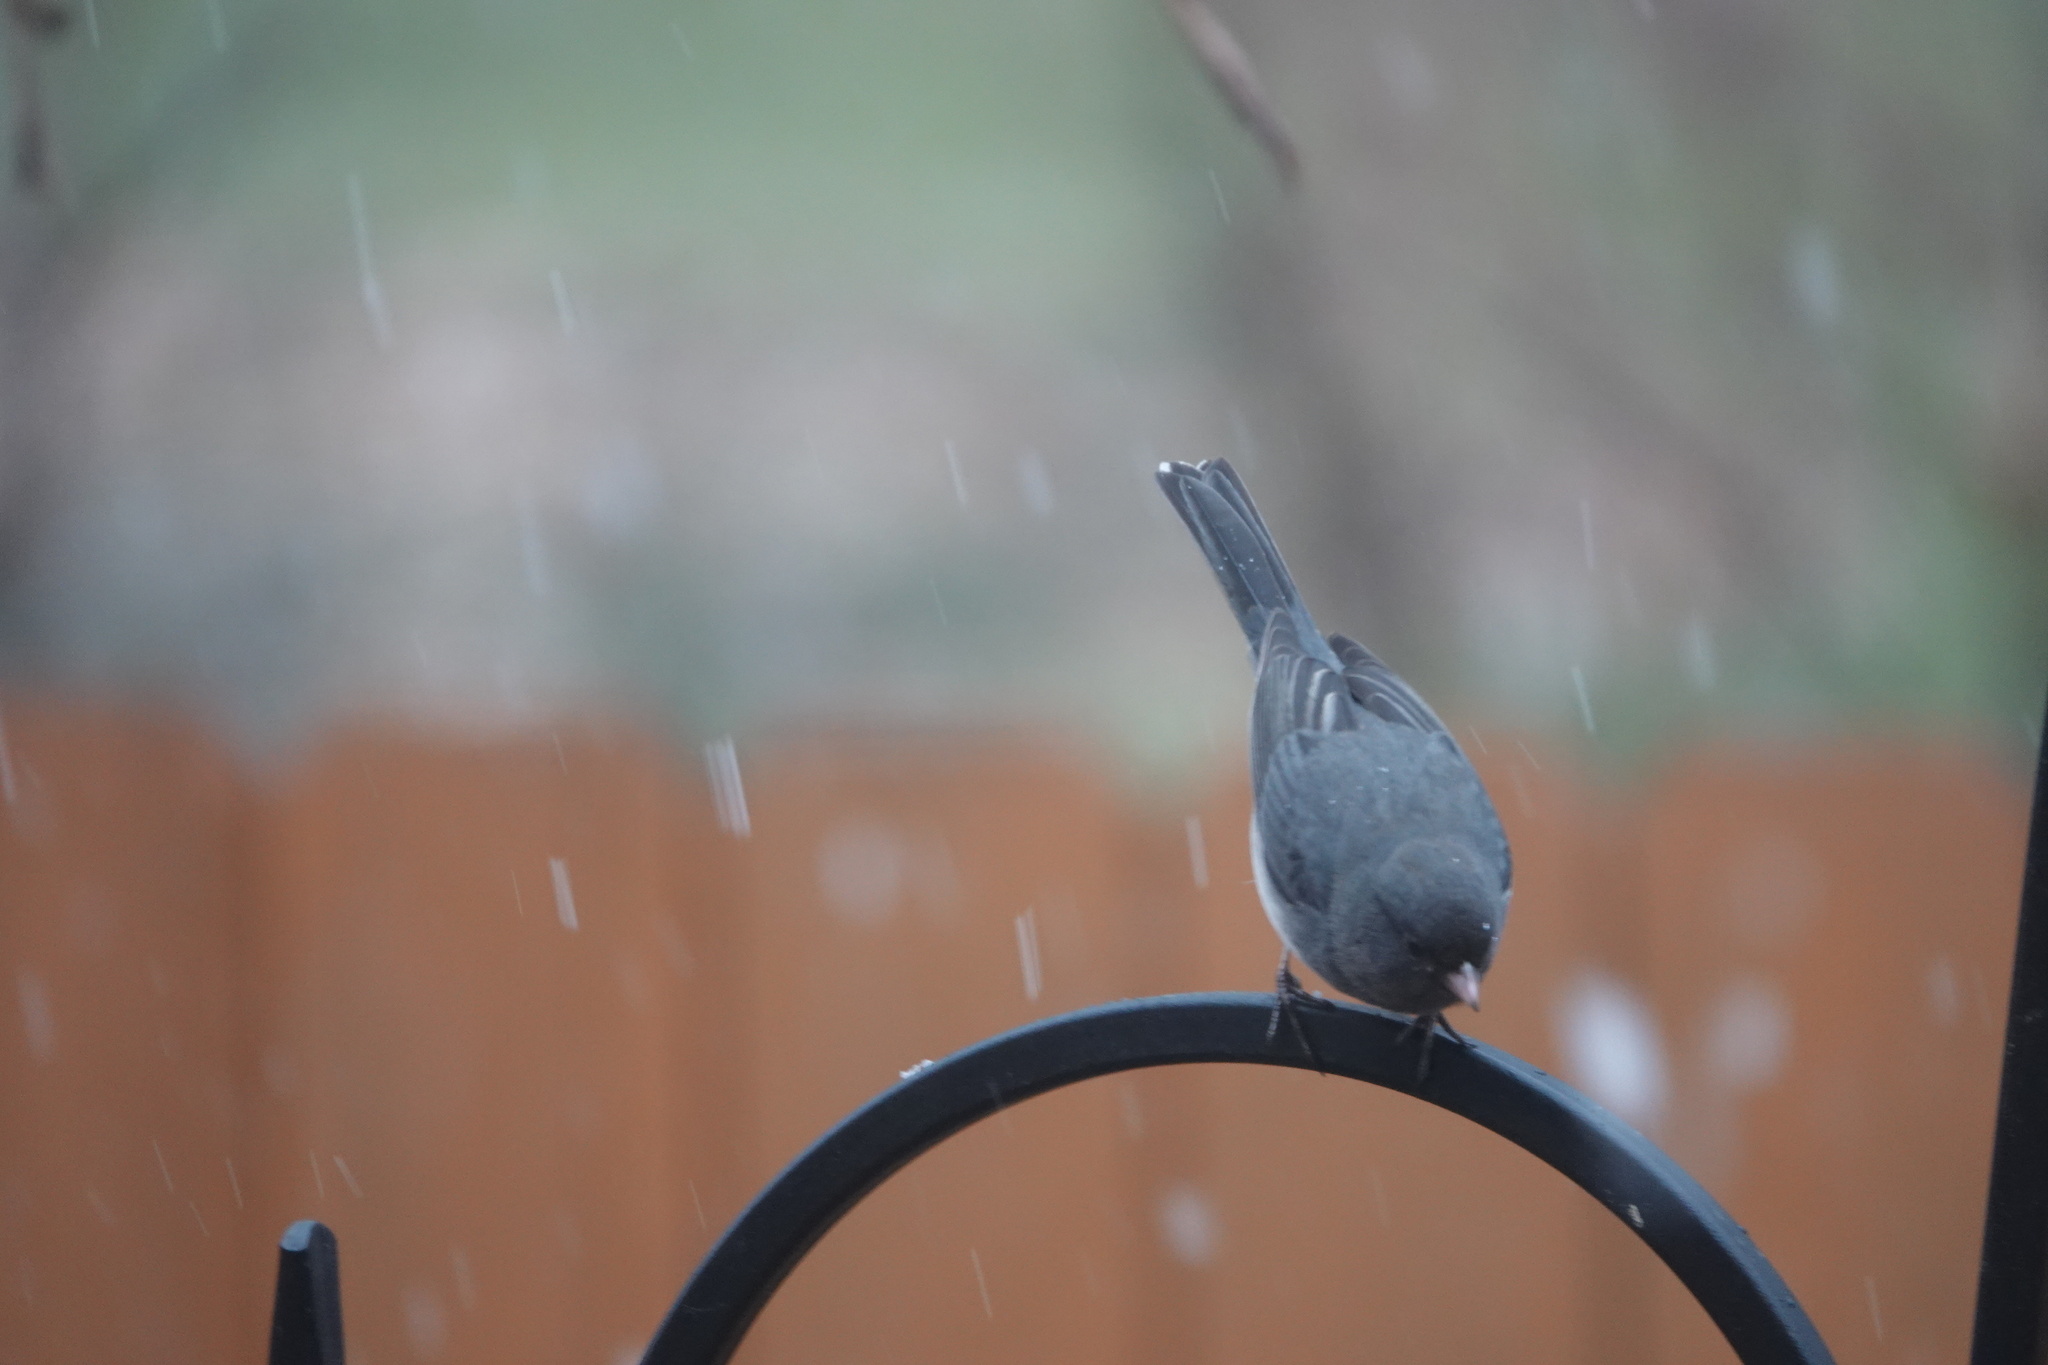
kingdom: Animalia
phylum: Chordata
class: Aves
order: Passeriformes
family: Passerellidae
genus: Junco
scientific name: Junco hyemalis
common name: Dark-eyed junco
